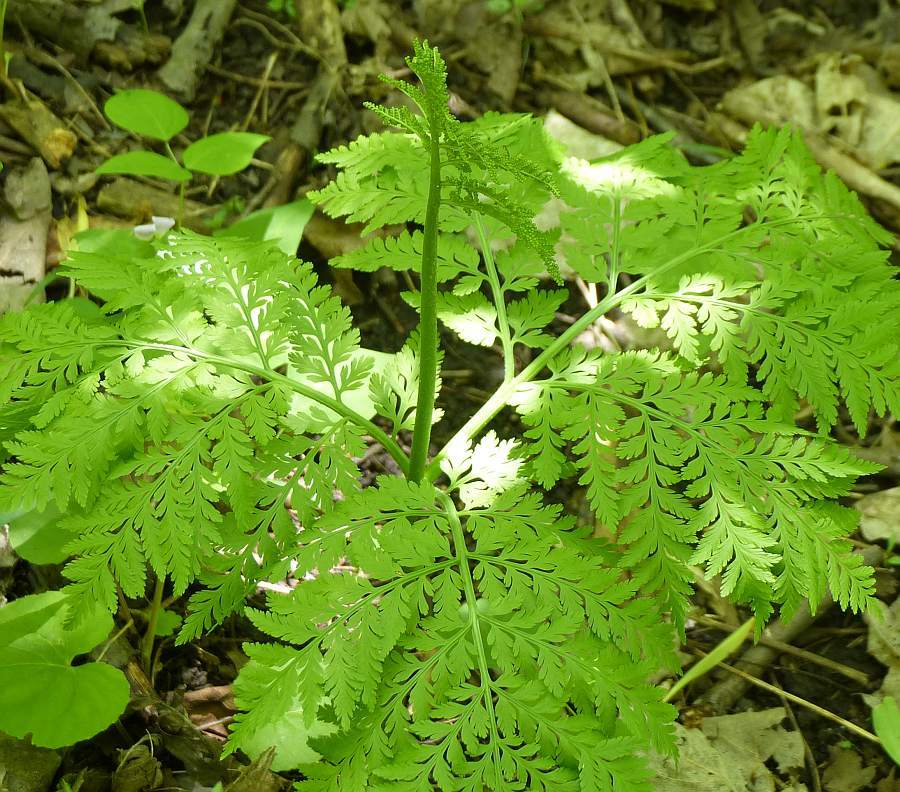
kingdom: Plantae
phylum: Tracheophyta
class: Polypodiopsida
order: Ophioglossales
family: Ophioglossaceae
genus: Botrypus
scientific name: Botrypus virginianus
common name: Common grapefern
